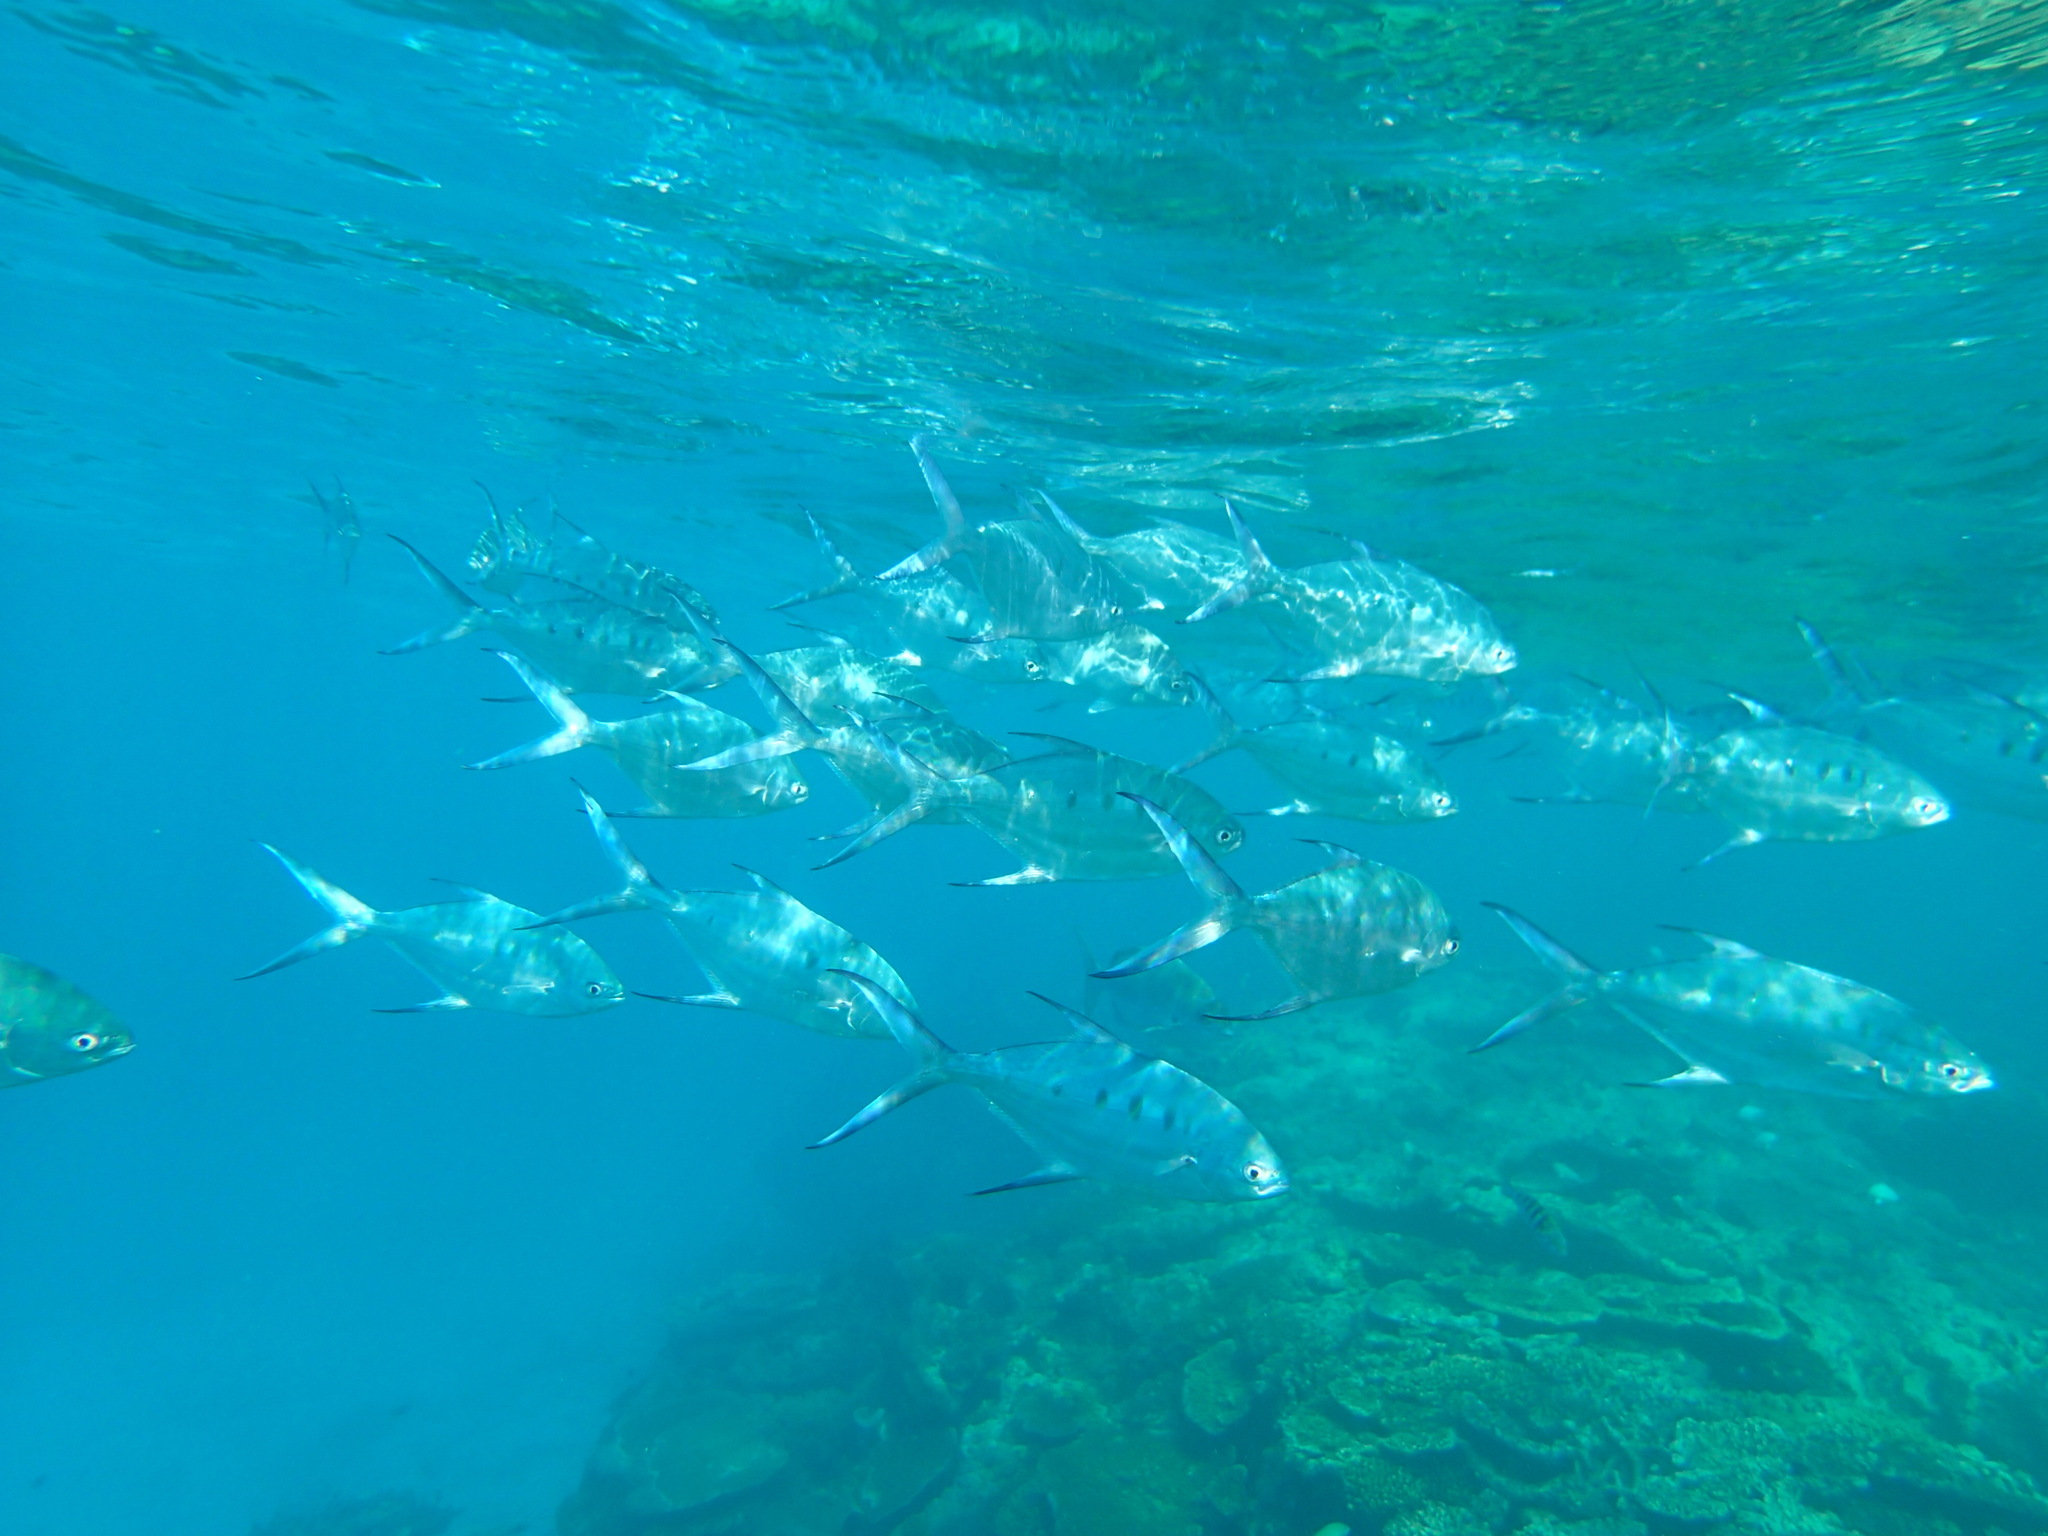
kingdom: Animalia
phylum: Chordata
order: Perciformes
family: Carangidae
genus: Trachinotus
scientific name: Trachinotus coppingeri
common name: Swallowtail dart
